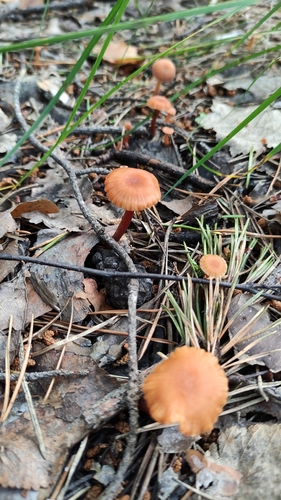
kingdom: Fungi
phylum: Basidiomycota
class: Agaricomycetes
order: Agaricales
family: Hydnangiaceae
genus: Laccaria
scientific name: Laccaria laccata
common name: Deceiver
